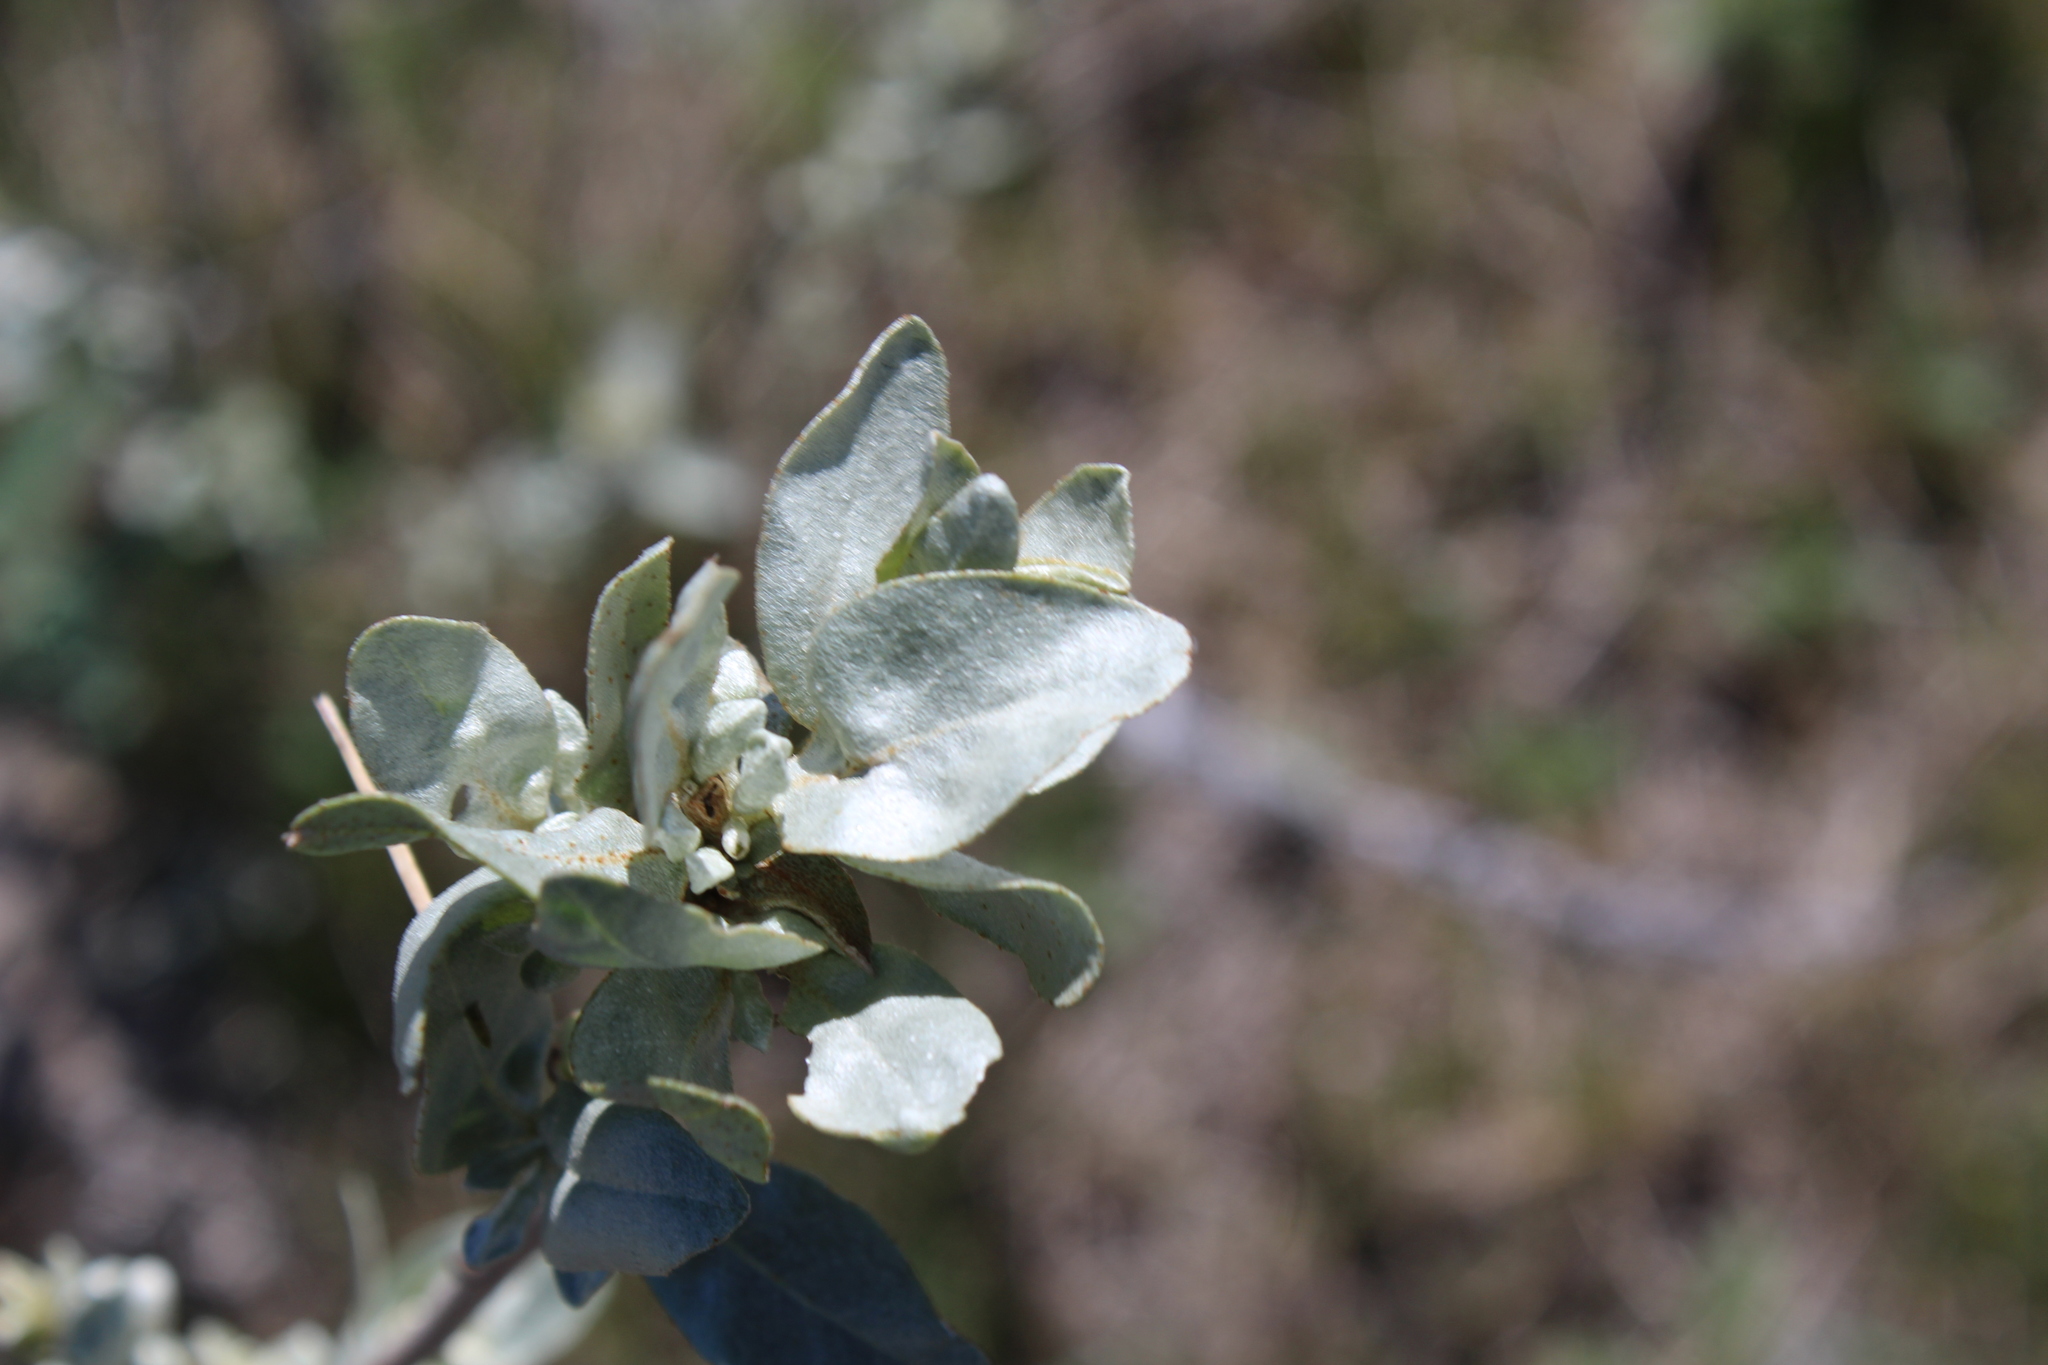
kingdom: Plantae
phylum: Tracheophyta
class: Magnoliopsida
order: Rosales
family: Elaeagnaceae
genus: Elaeagnus
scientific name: Elaeagnus commutata
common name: Silverberry
